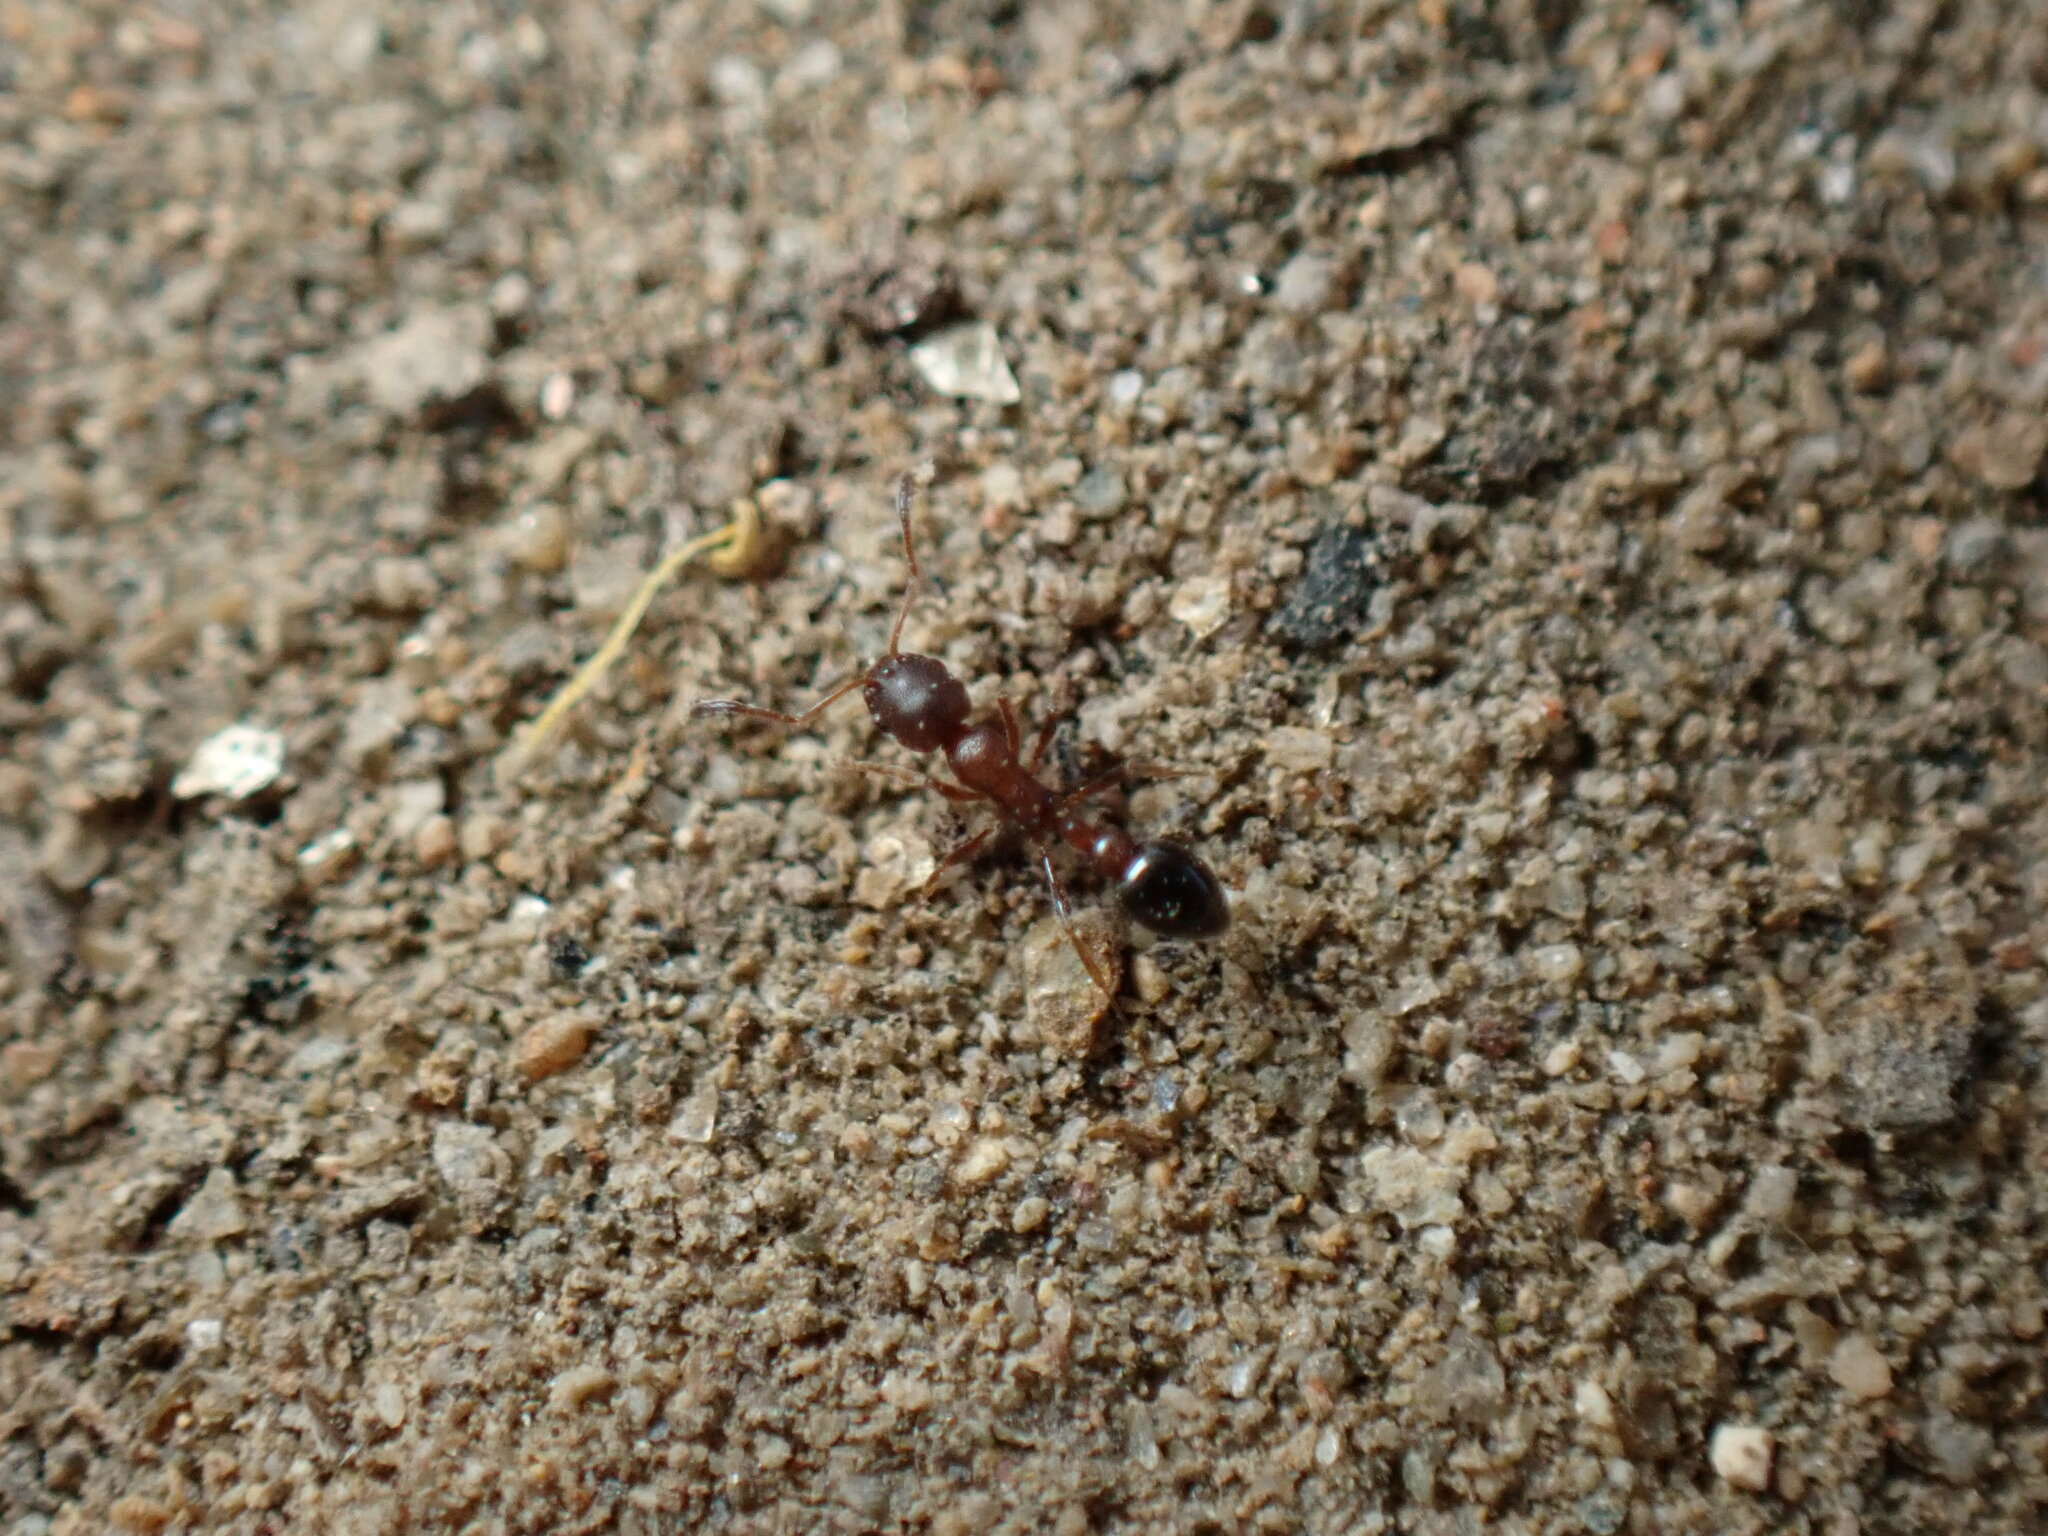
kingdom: Animalia
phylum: Arthropoda
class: Insecta
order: Hymenoptera
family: Formicidae
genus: Cardiocondyla
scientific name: Cardiocondyla mauritanica
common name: Sneaking ant
